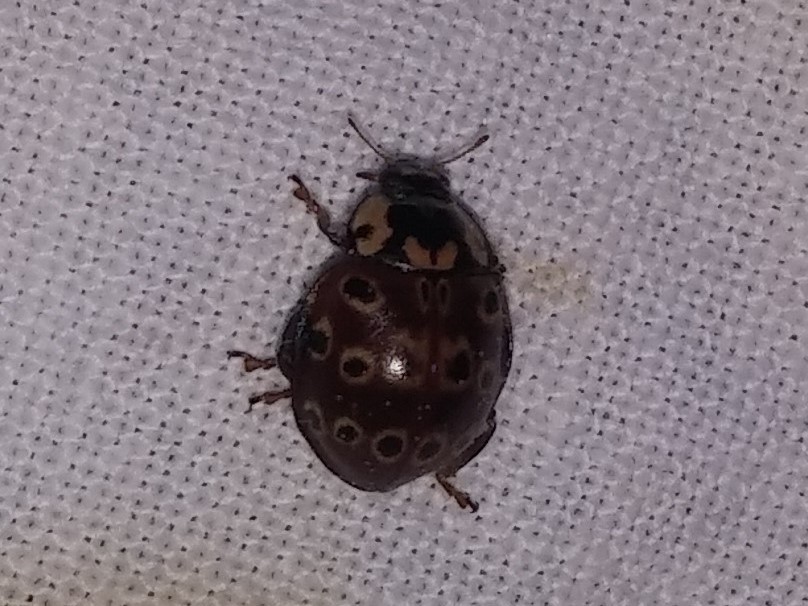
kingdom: Animalia
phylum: Arthropoda
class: Insecta
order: Coleoptera
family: Coccinellidae
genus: Anatis
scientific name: Anatis mali
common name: Eye-spotted lady beetle
